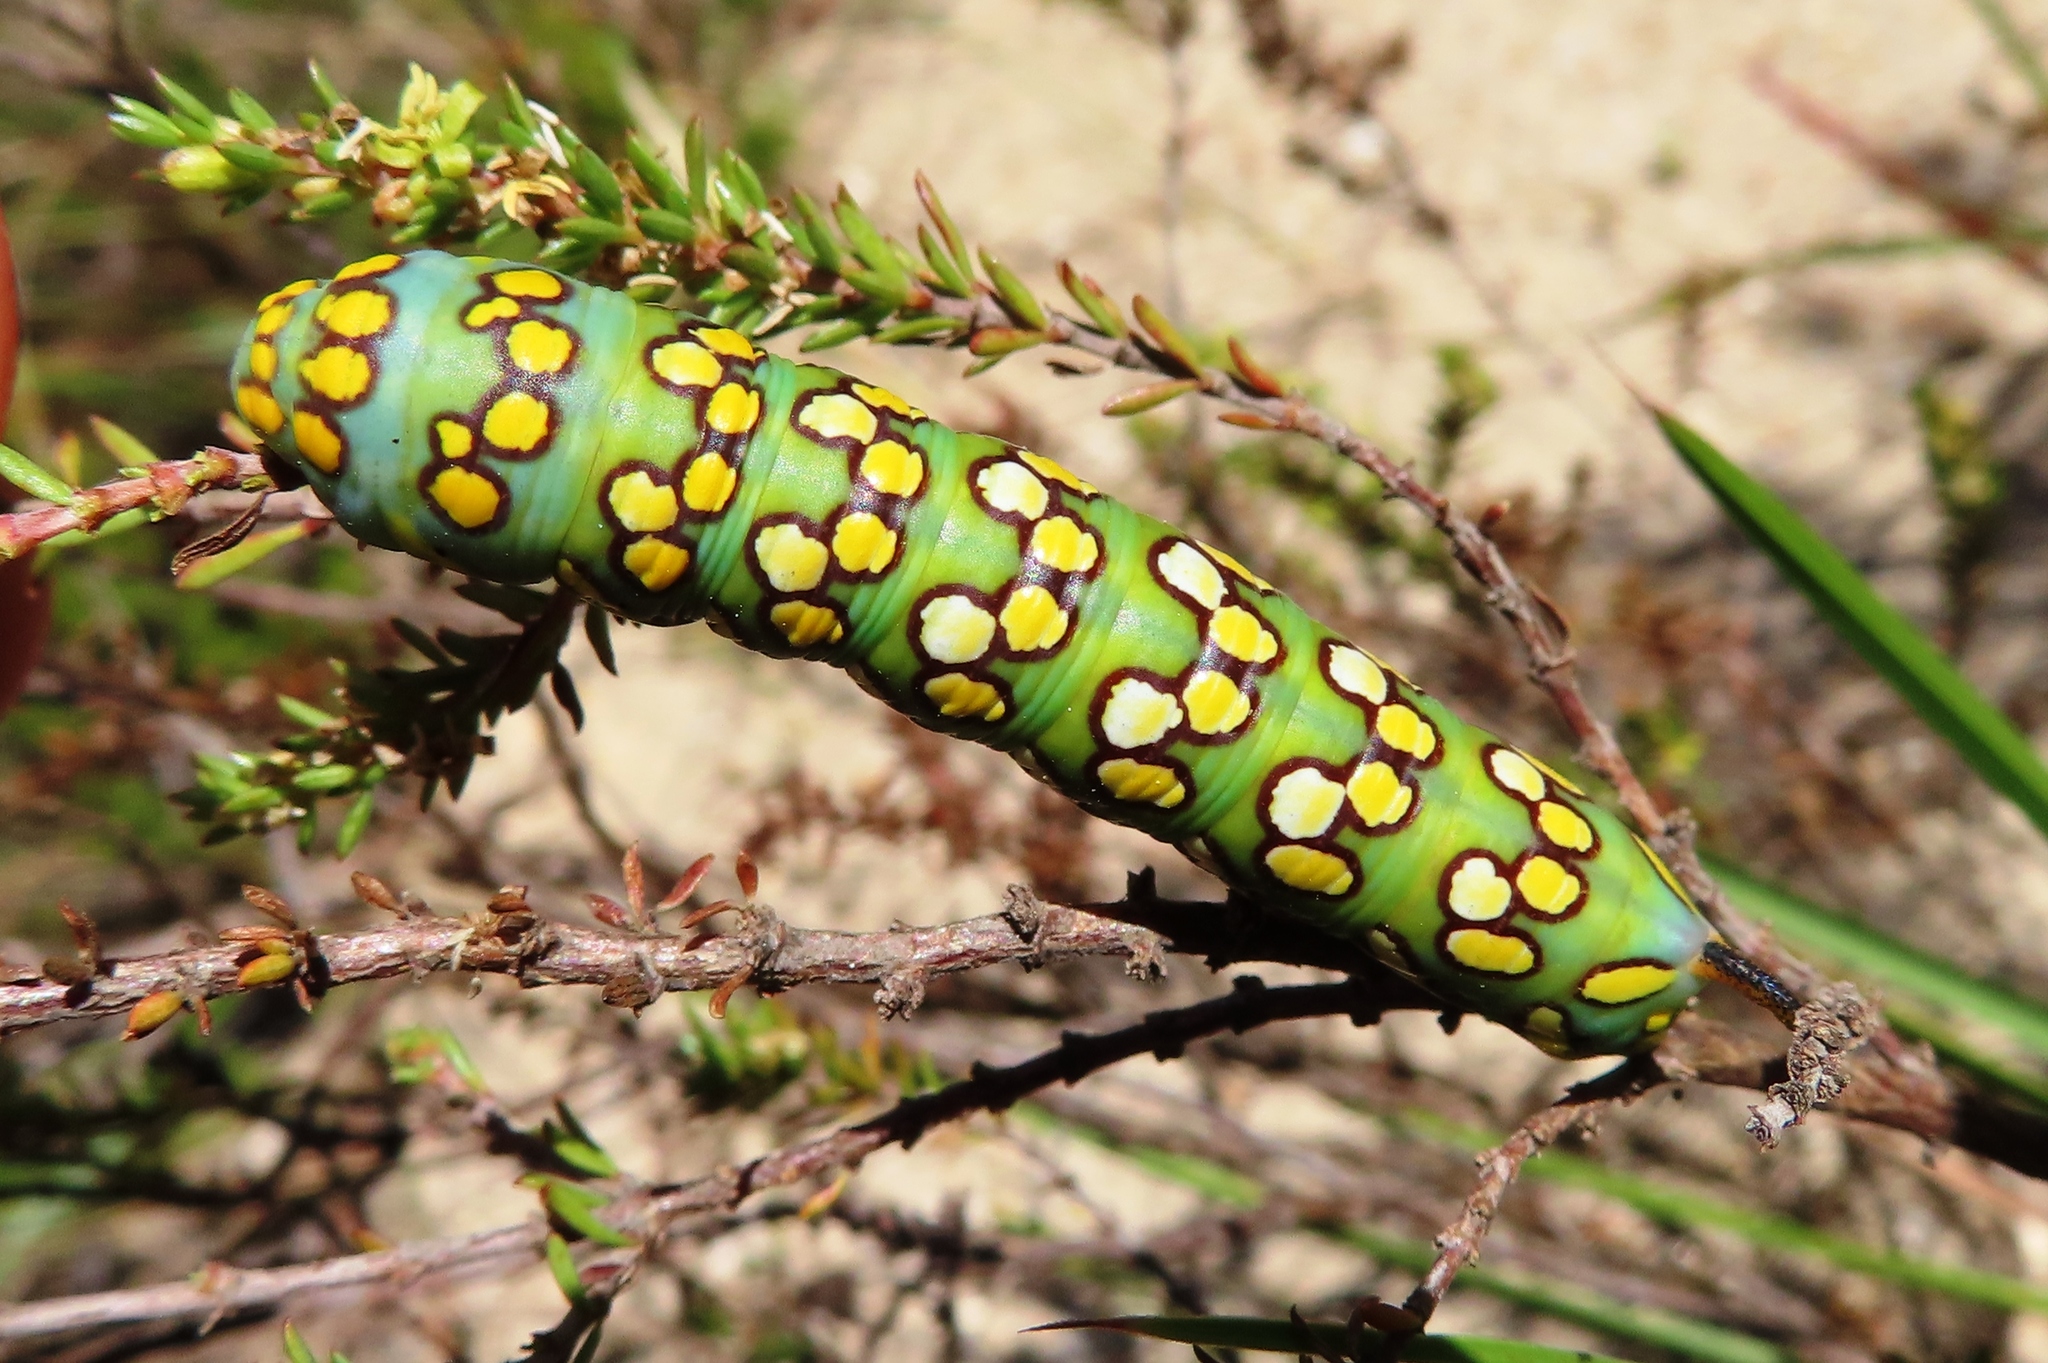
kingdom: Animalia
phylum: Arthropoda
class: Insecta
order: Lepidoptera
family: Sphingidae
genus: Temnora
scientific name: Temnora pylas
